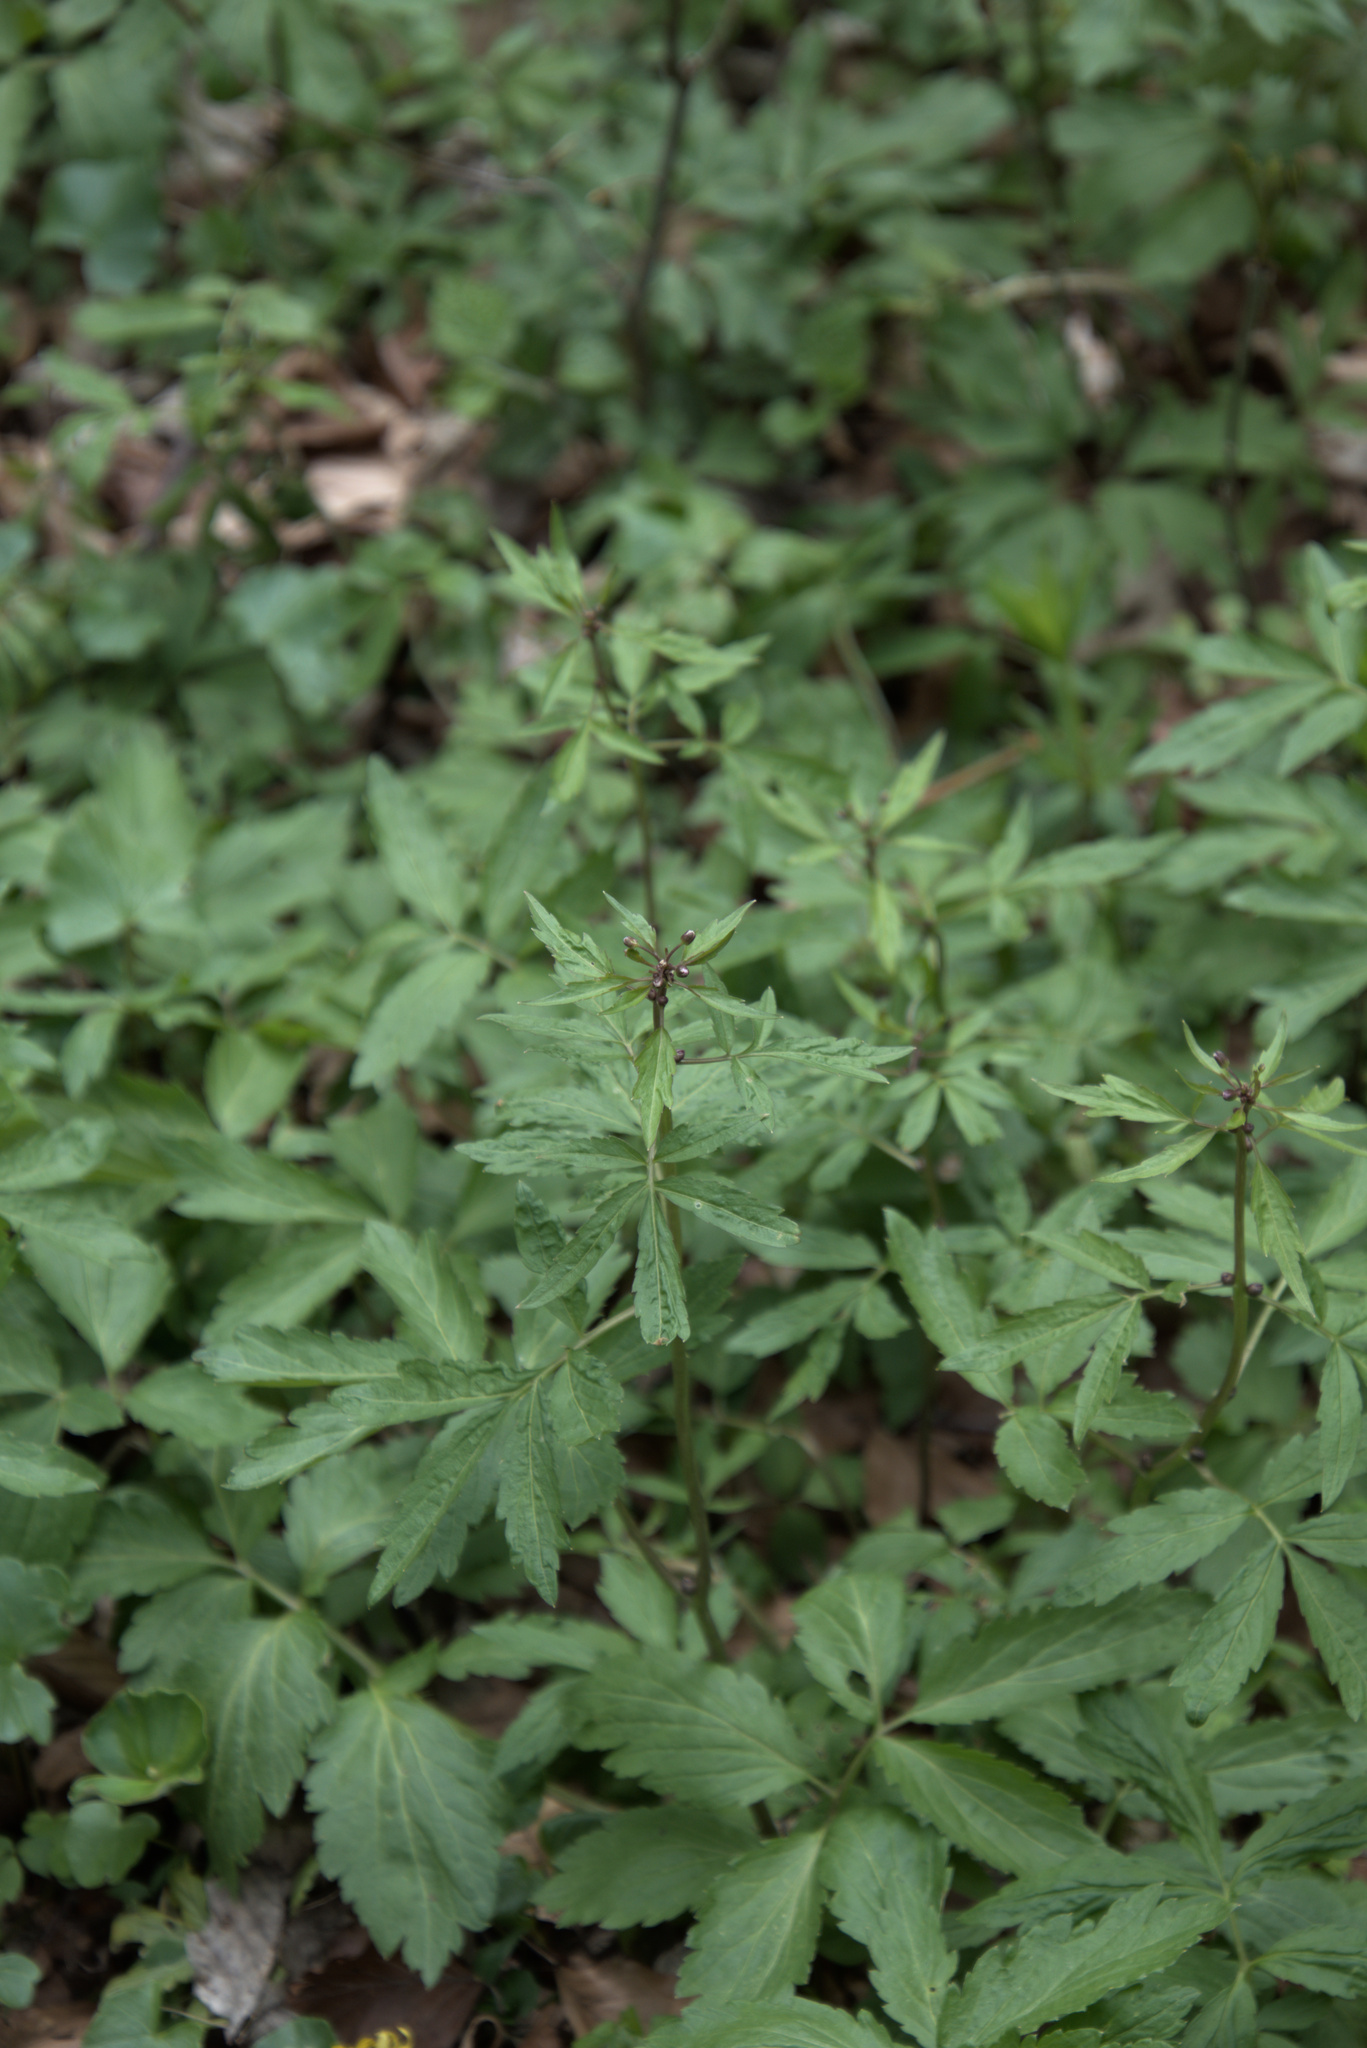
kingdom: Plantae
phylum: Tracheophyta
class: Magnoliopsida
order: Brassicales
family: Brassicaceae
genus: Cardamine
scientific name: Cardamine bulbifera
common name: Coralroot bittercress
